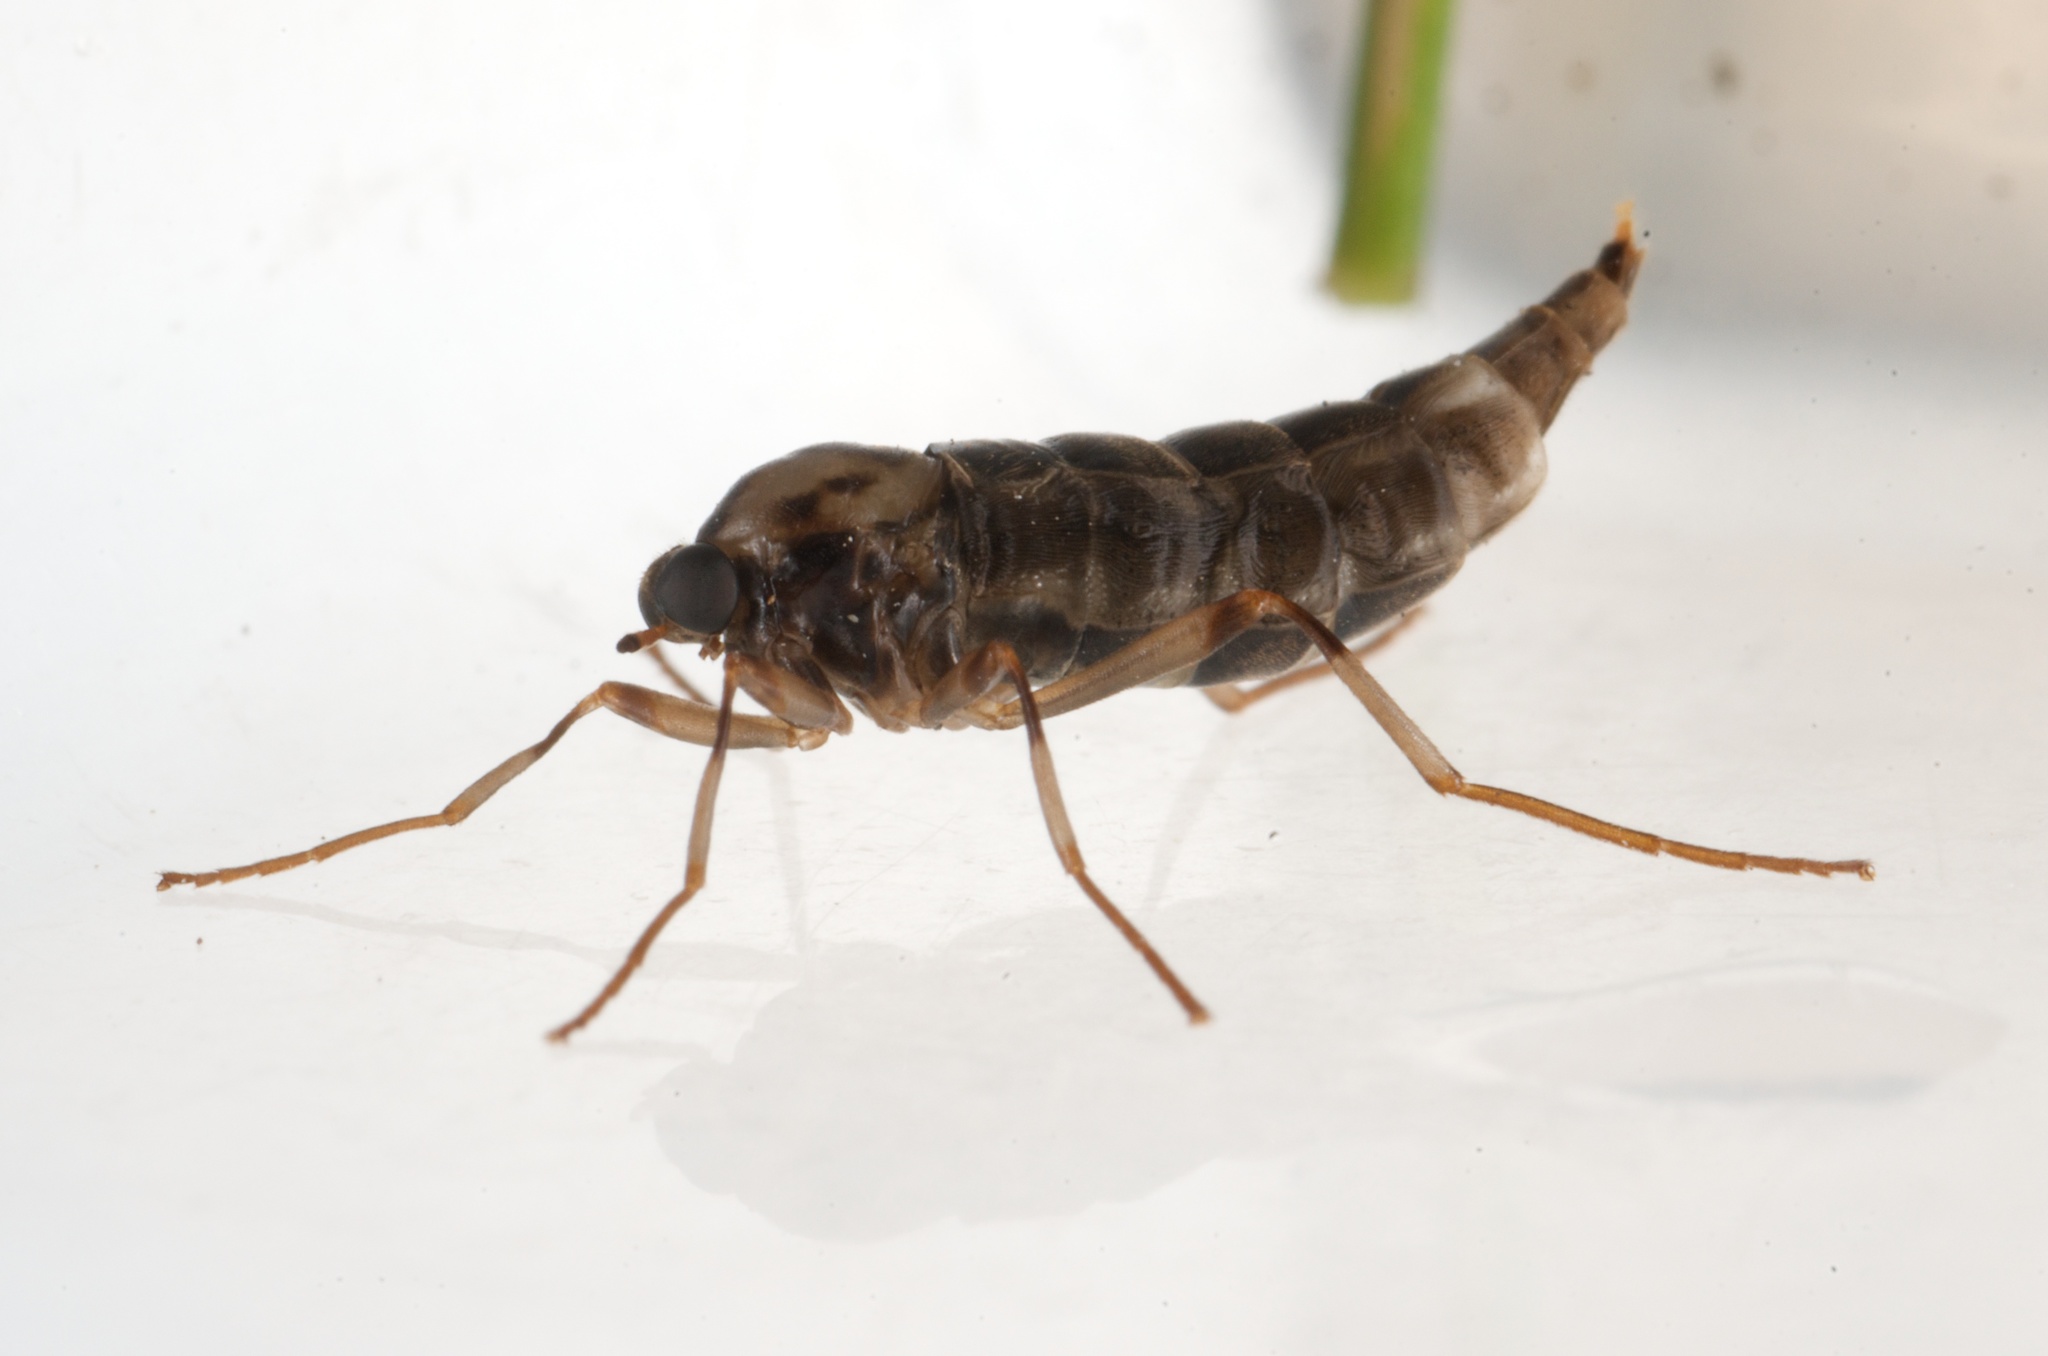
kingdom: Animalia
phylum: Arthropoda
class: Insecta
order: Diptera
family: Stratiomyidae
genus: Boreoides
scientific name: Boreoides tasmaniensis
